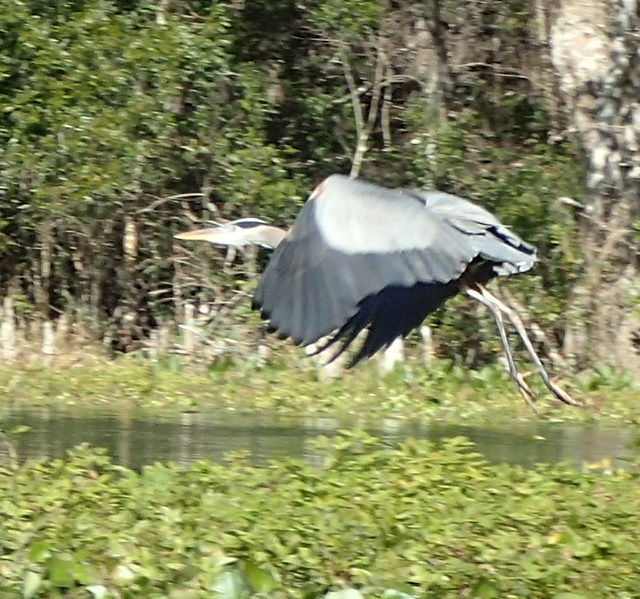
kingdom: Animalia
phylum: Chordata
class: Aves
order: Pelecaniformes
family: Ardeidae
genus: Ardea
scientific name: Ardea herodias
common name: Great blue heron
